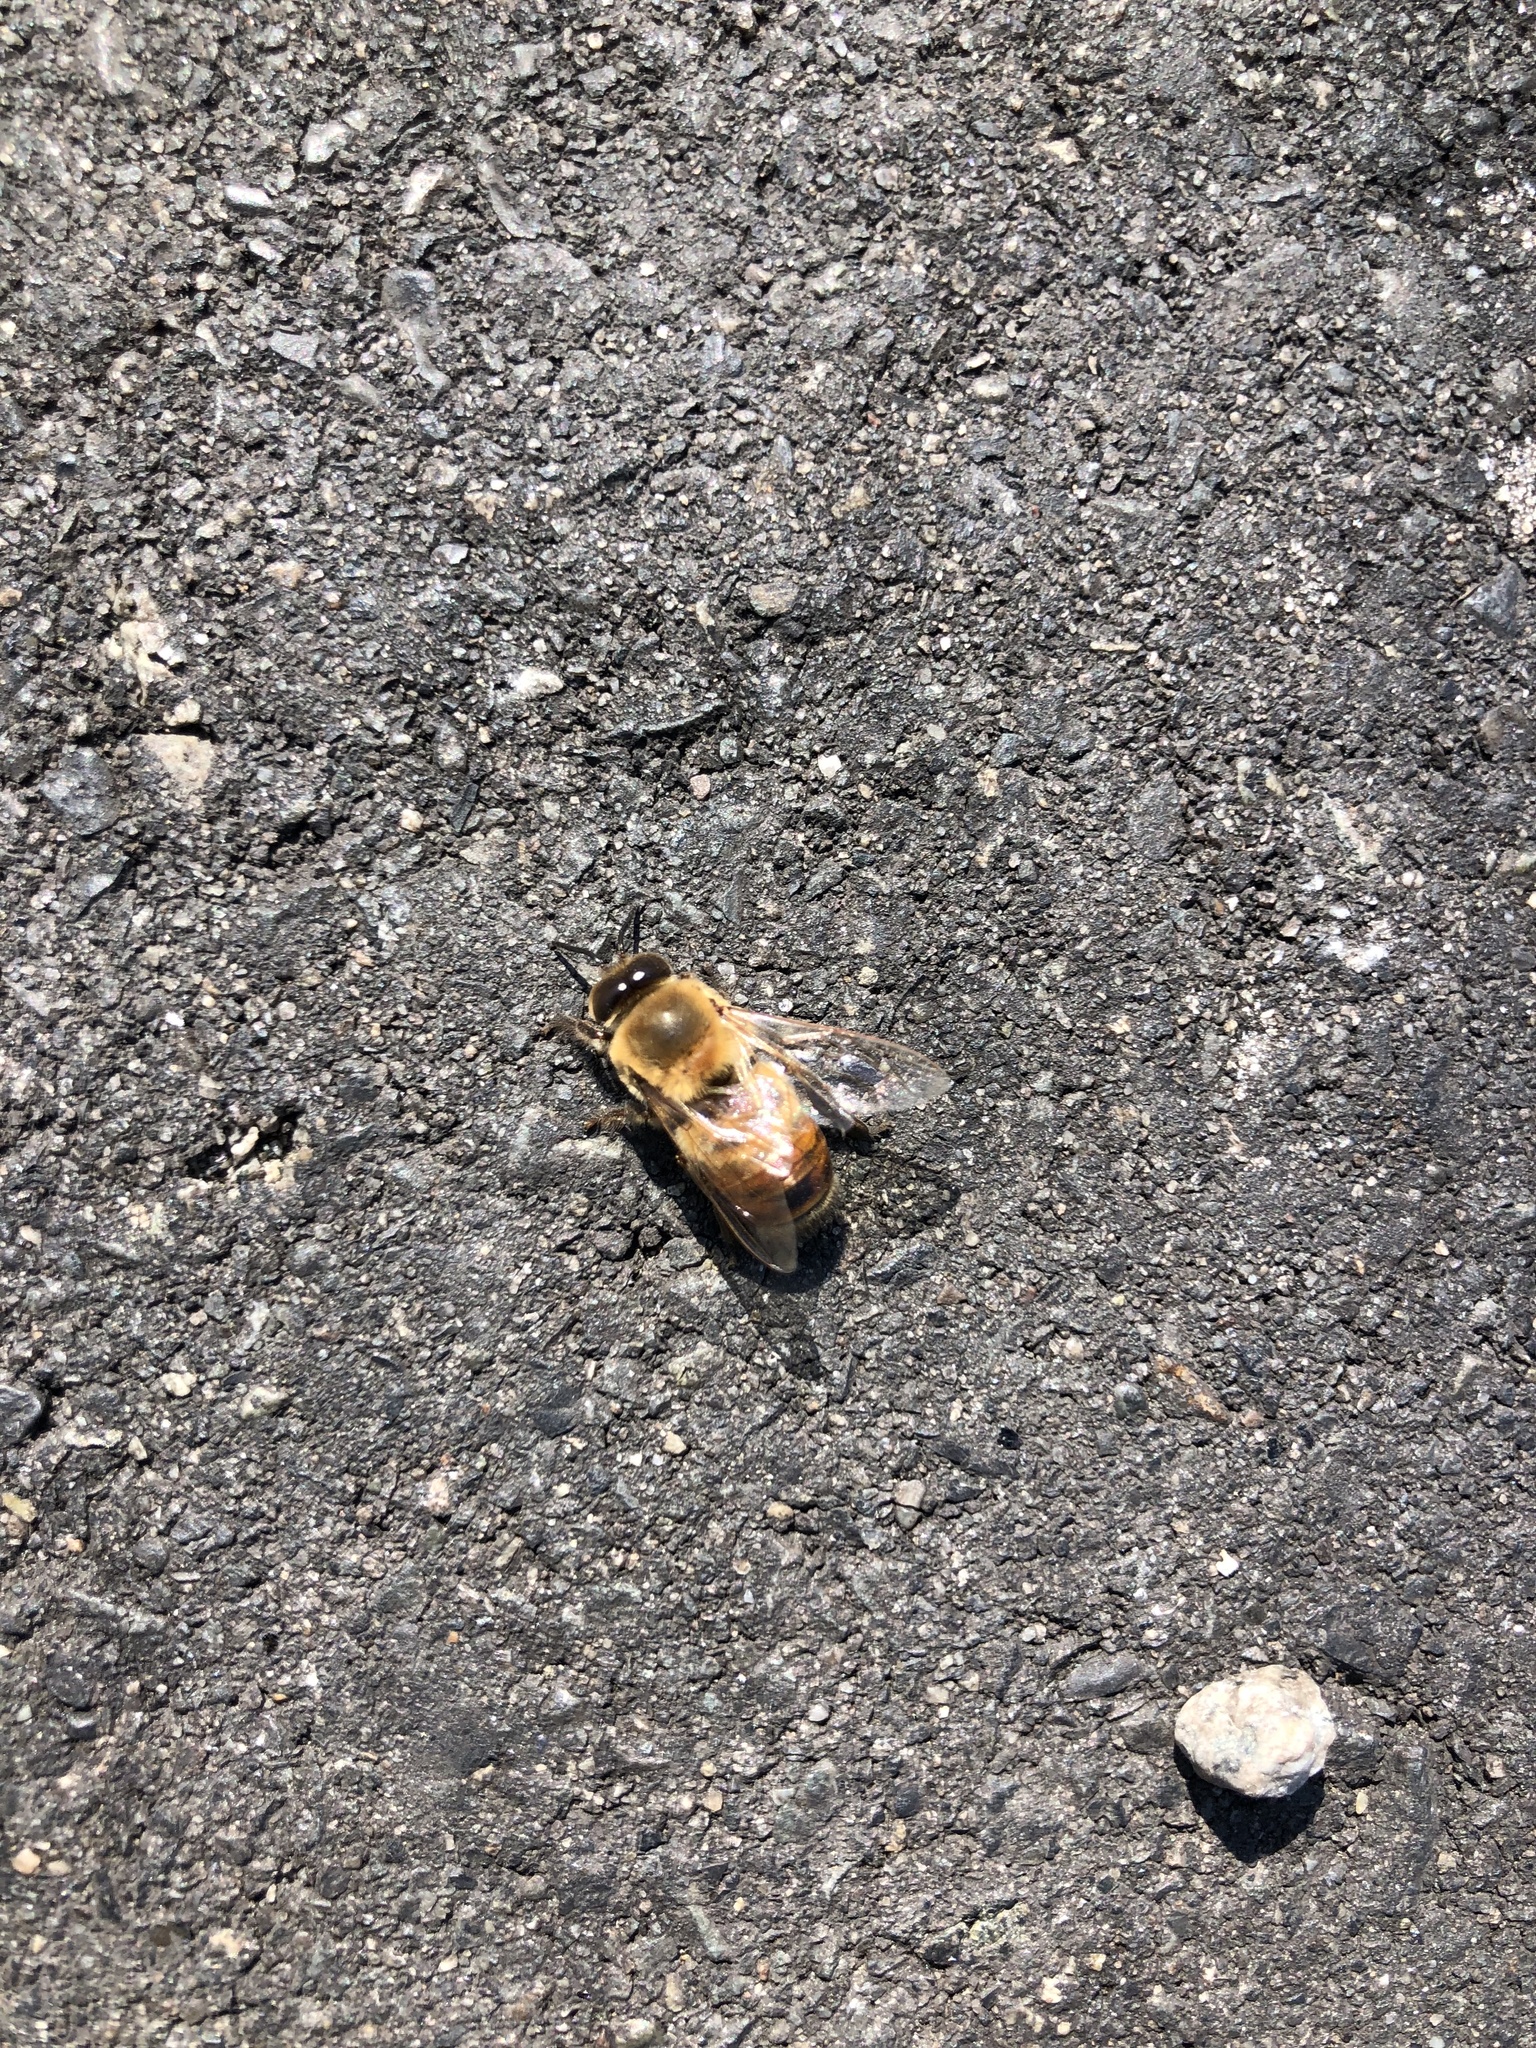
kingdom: Animalia
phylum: Arthropoda
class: Insecta
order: Hymenoptera
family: Apidae
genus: Apis
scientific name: Apis mellifera
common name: Honey bee
